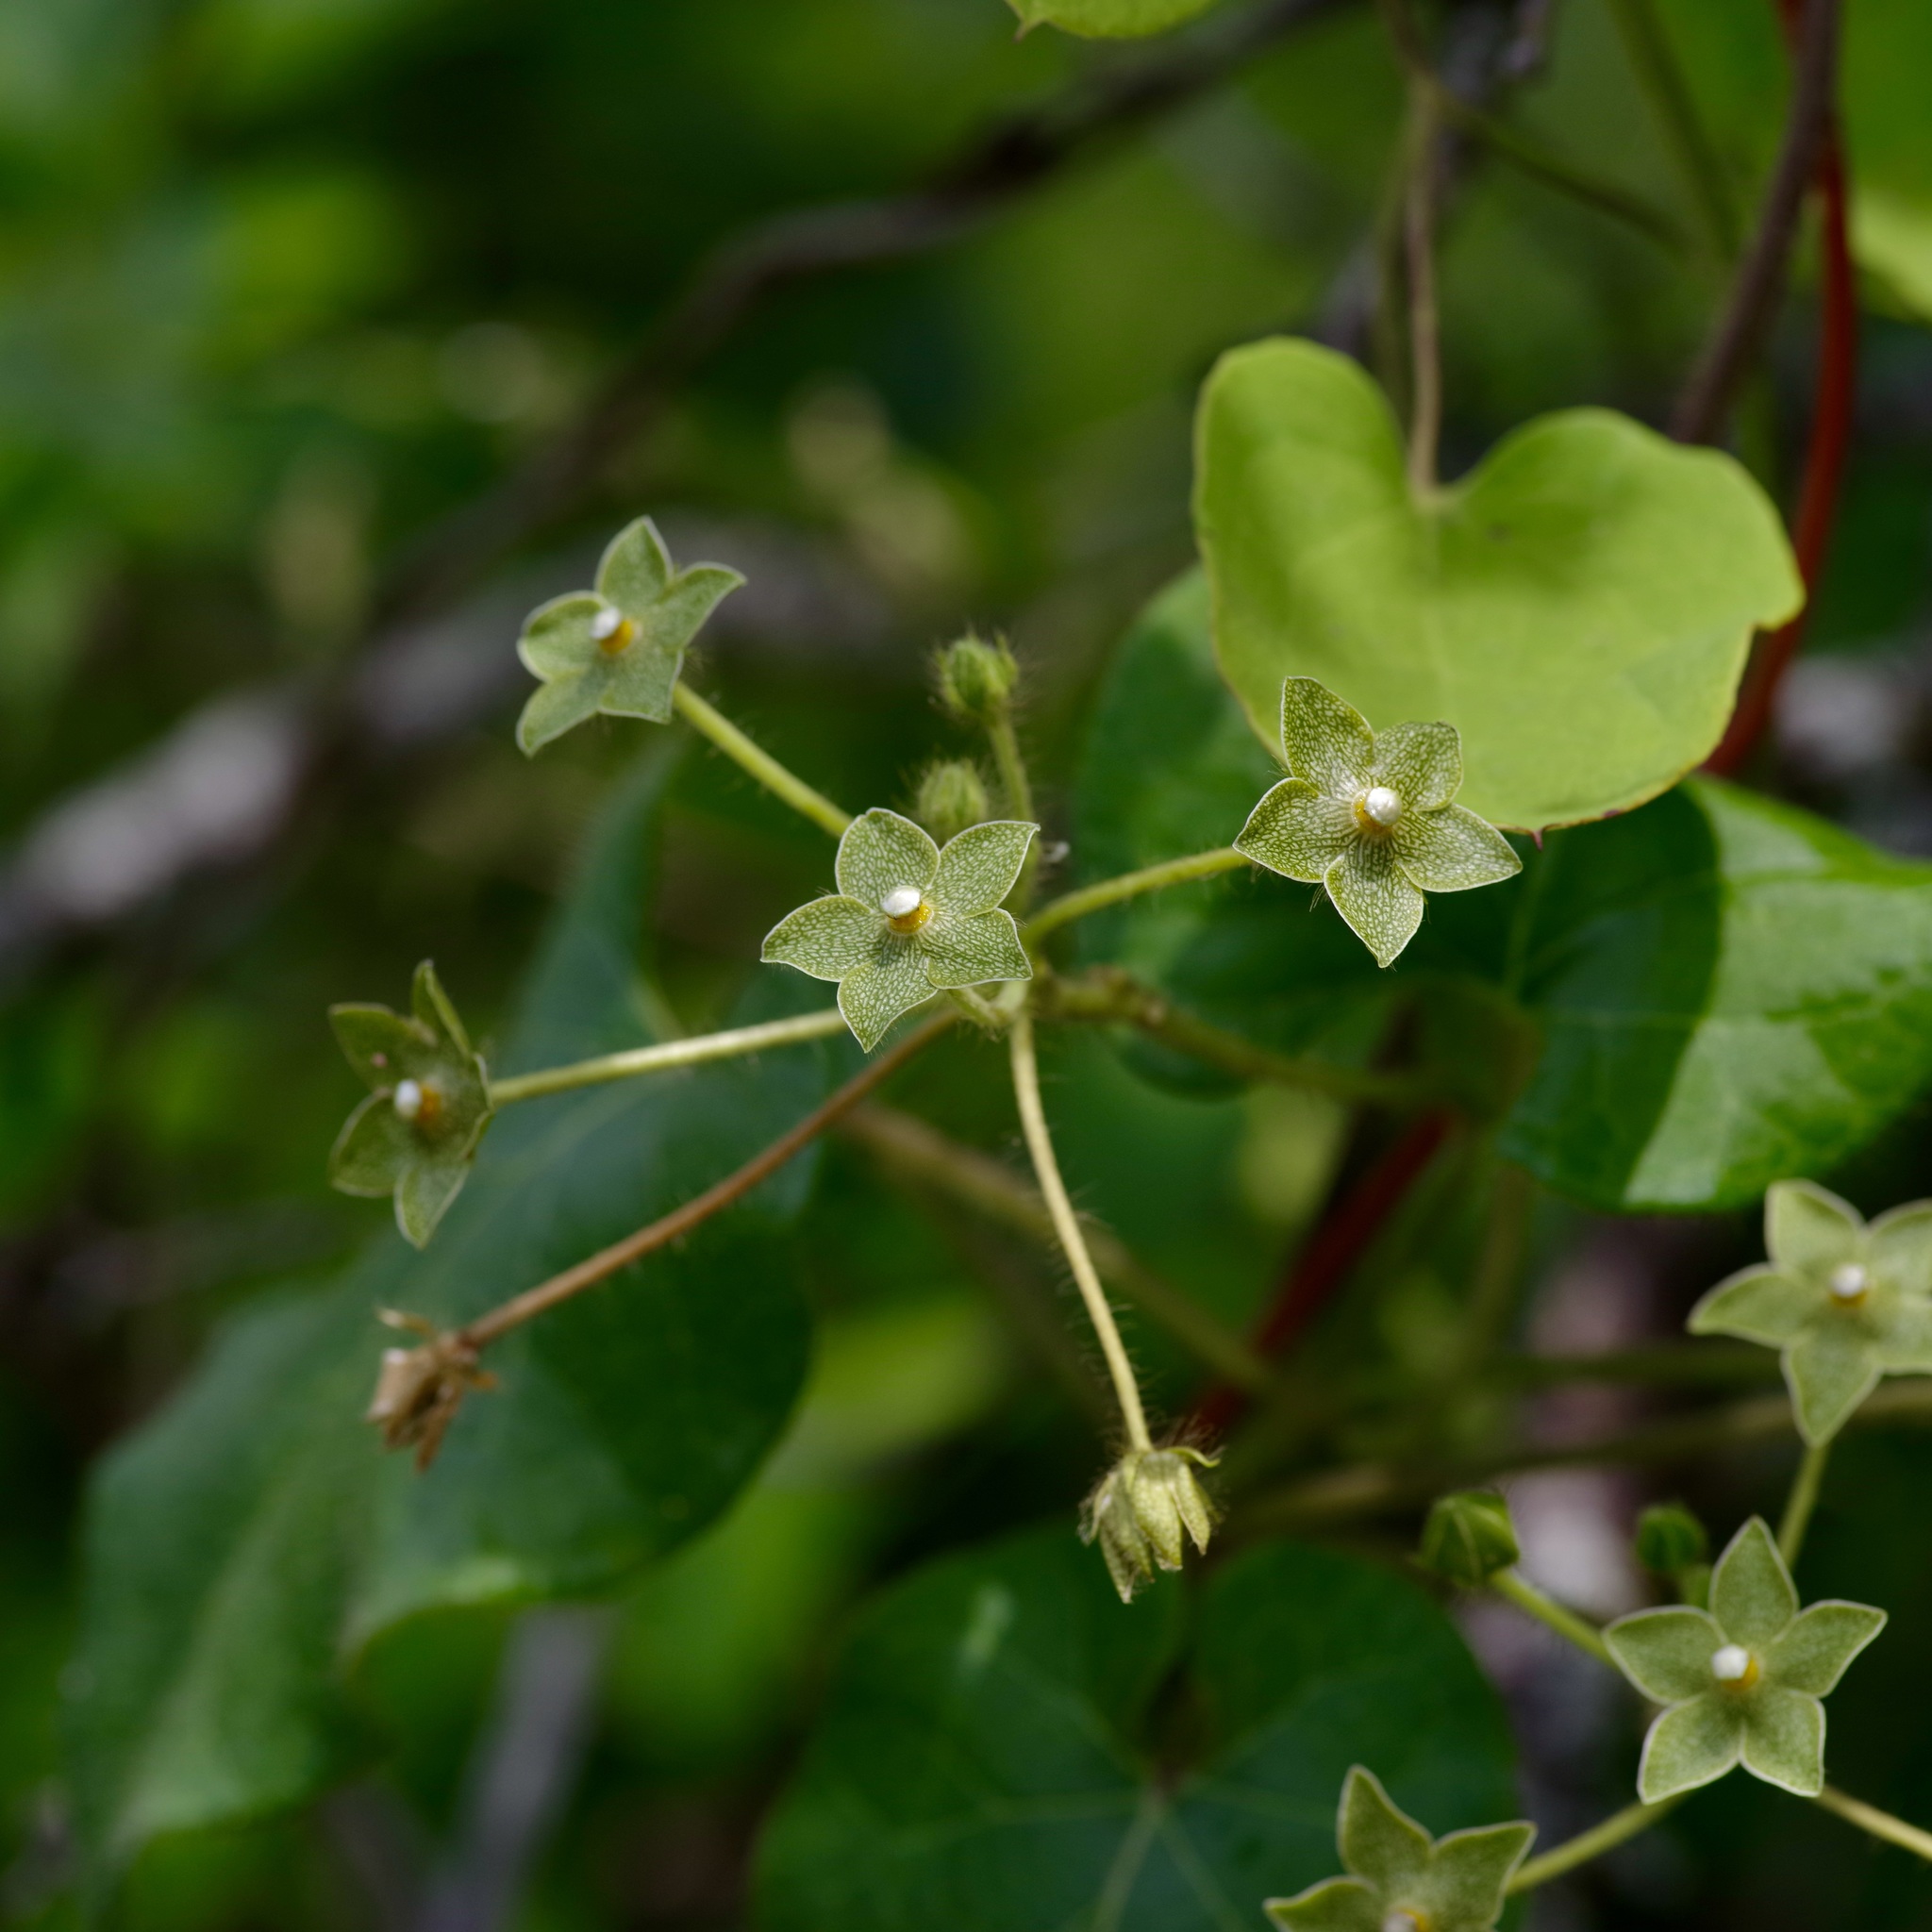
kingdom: Plantae
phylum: Tracheophyta
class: Magnoliopsida
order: Gentianales
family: Apocynaceae
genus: Dictyanthus
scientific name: Dictyanthus reticulatus
